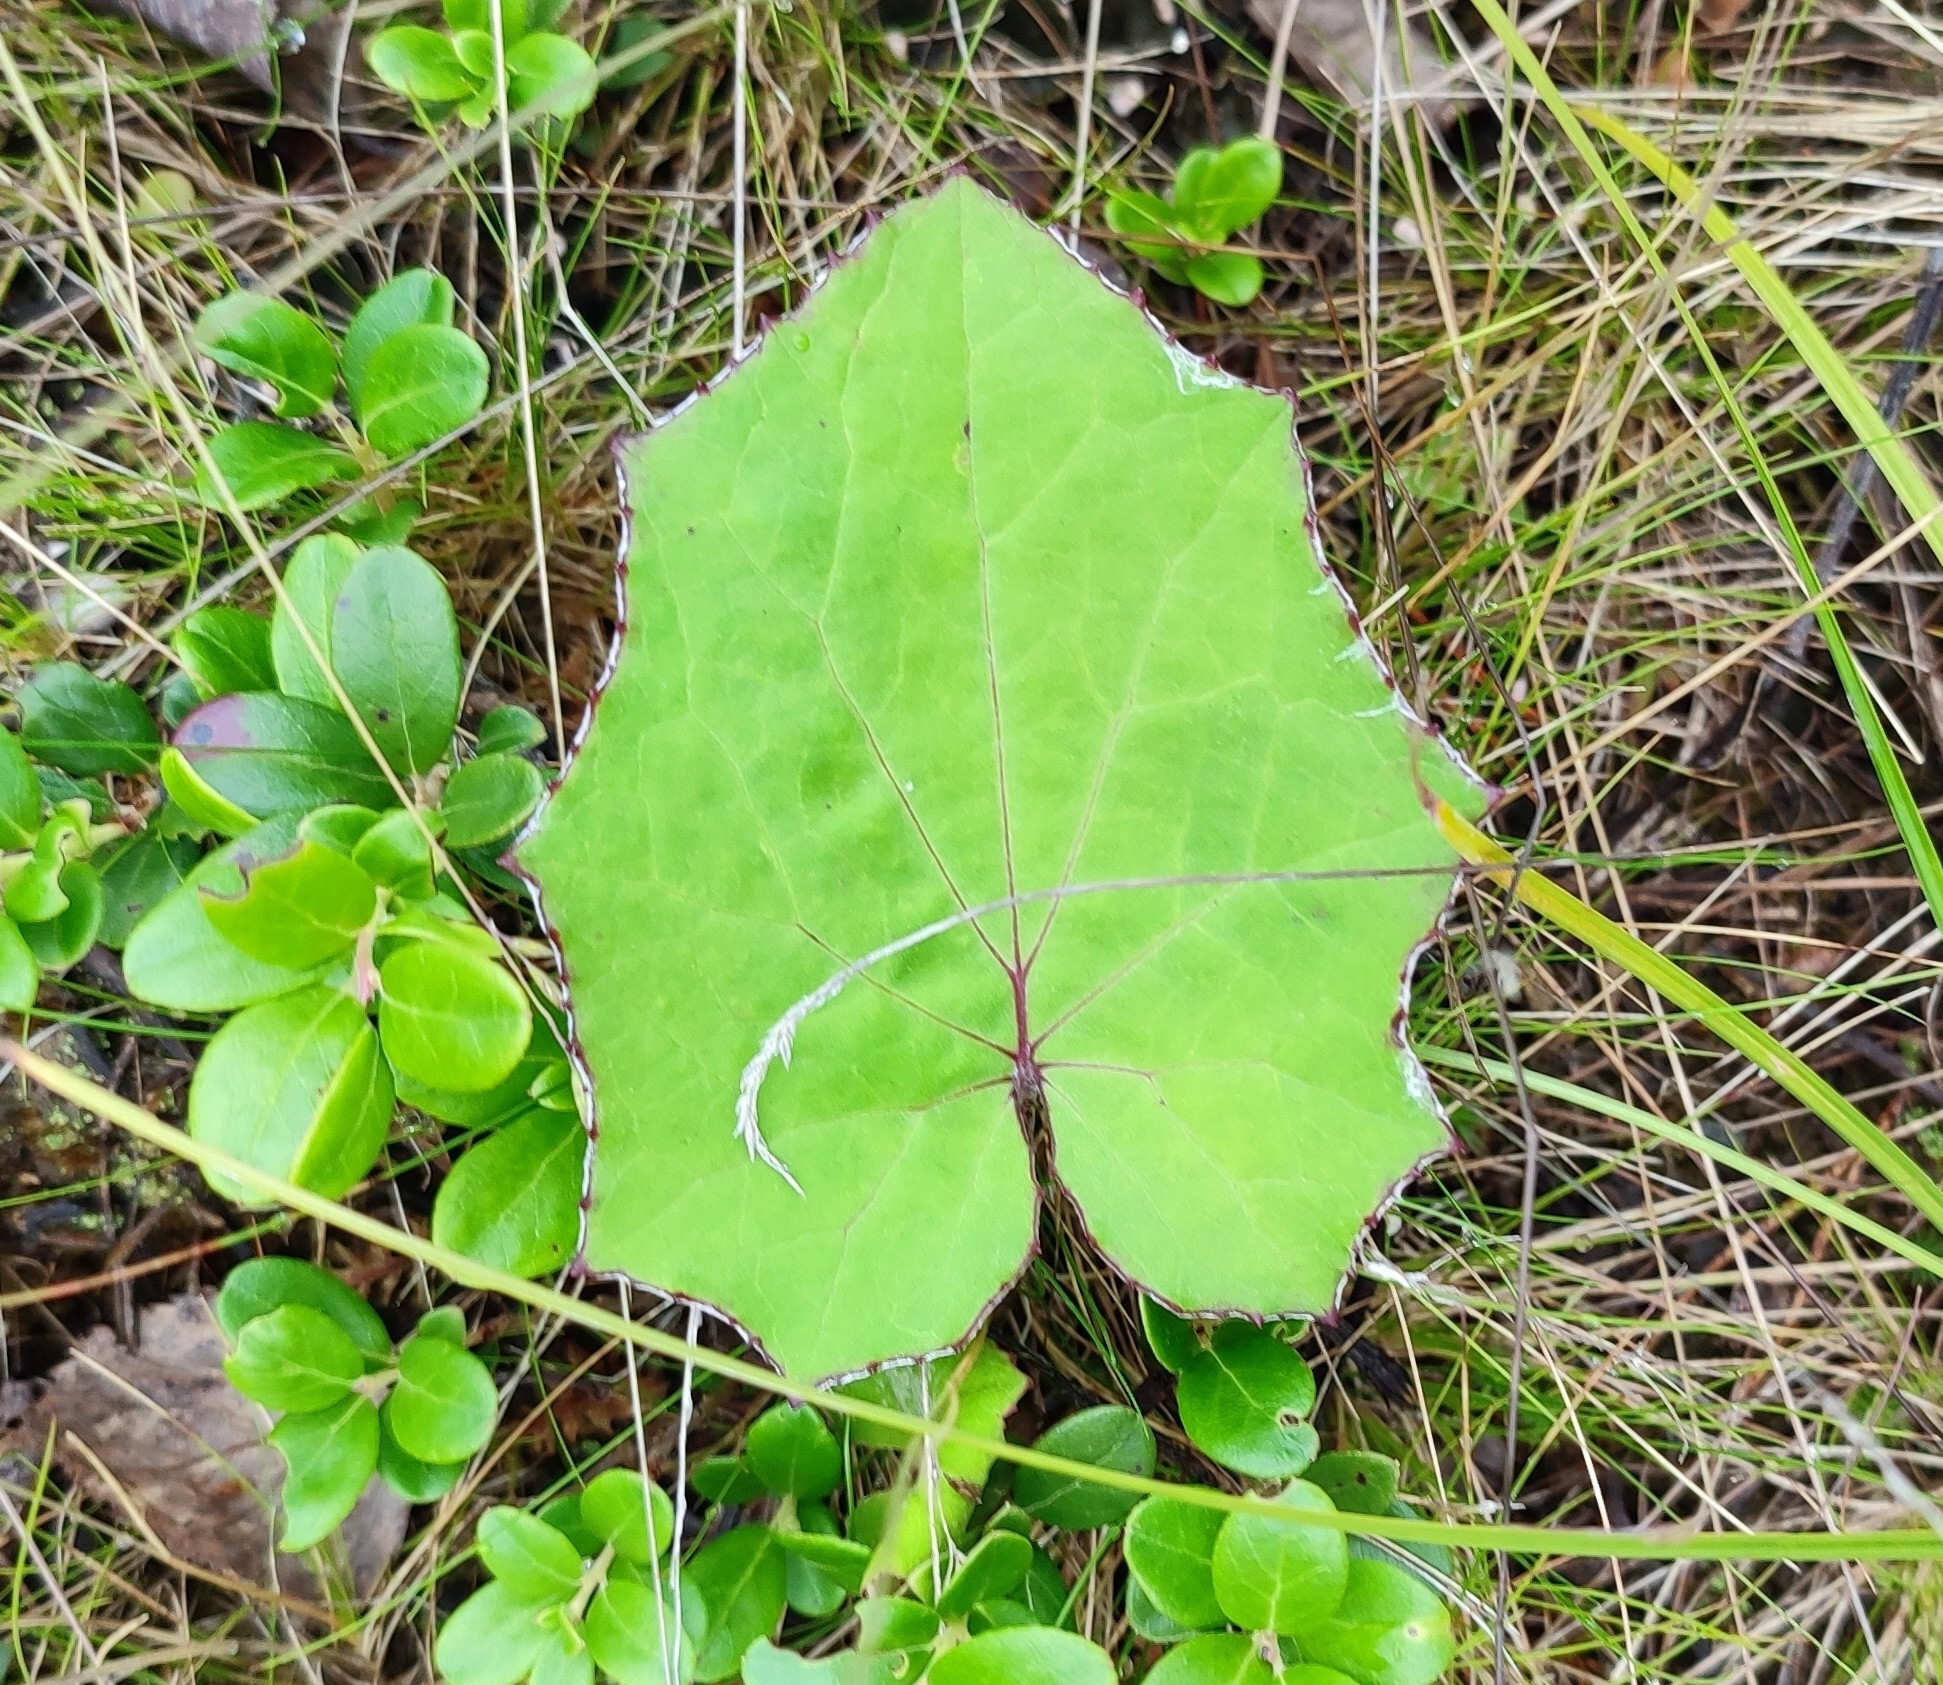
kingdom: Plantae
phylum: Tracheophyta
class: Magnoliopsida
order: Asterales
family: Asteraceae
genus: Tussilago
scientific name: Tussilago farfara
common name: Coltsfoot
